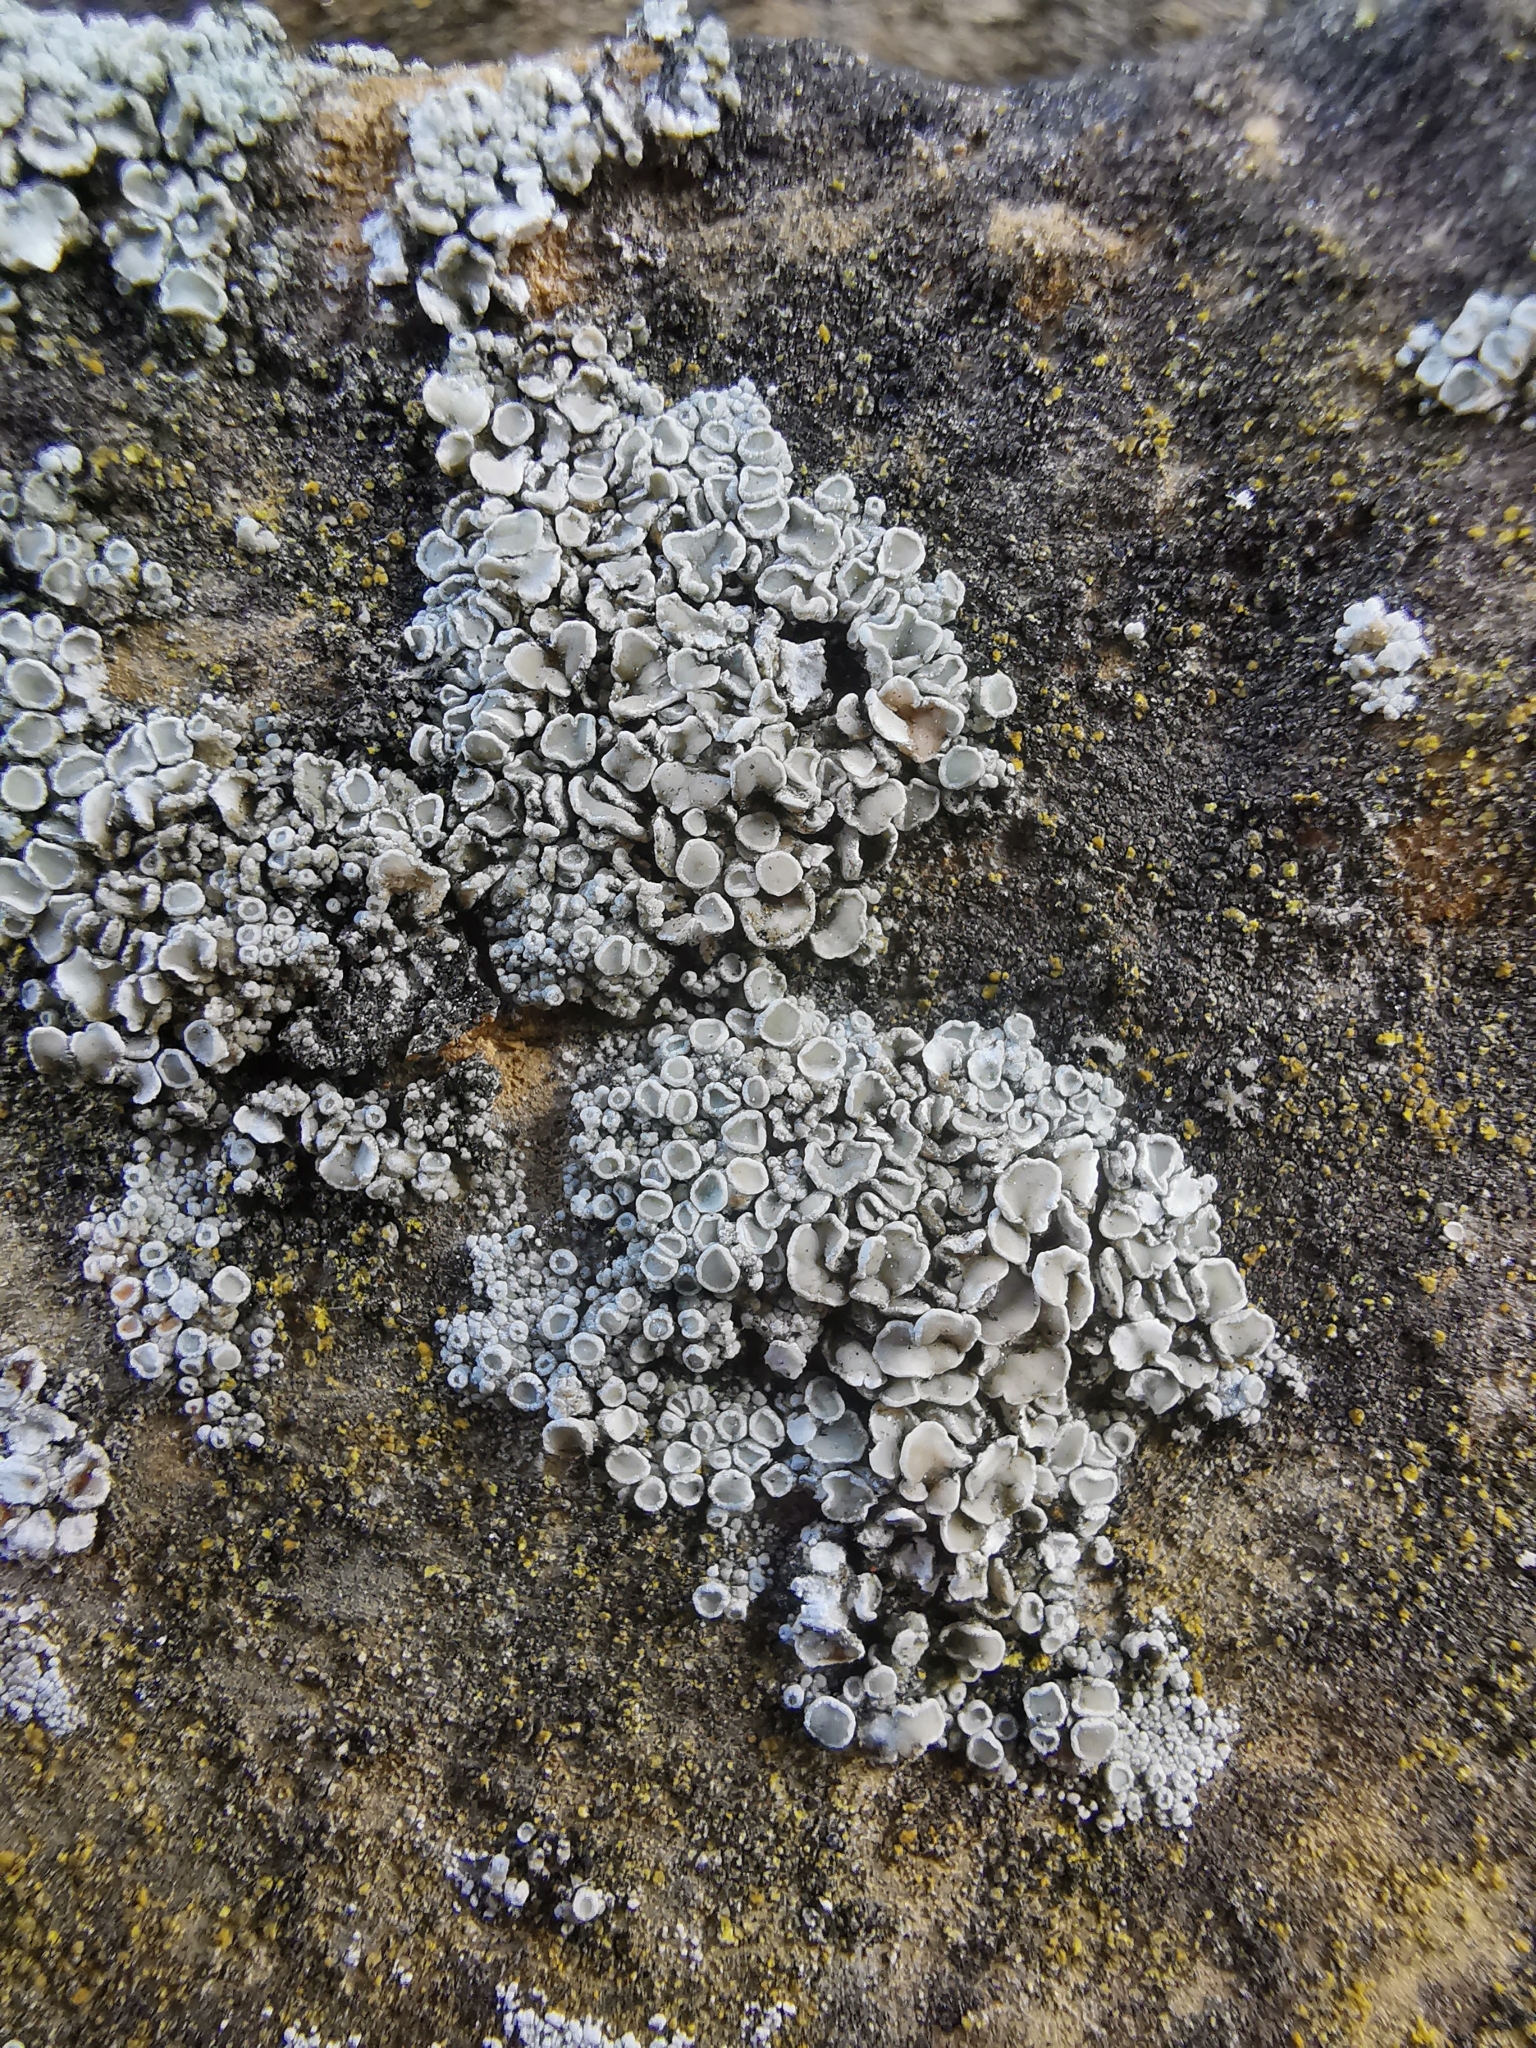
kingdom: Fungi
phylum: Ascomycota
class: Lecanoromycetes
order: Lecanorales
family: Lecanoraceae
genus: Polyozosia
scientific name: Polyozosia albescens
